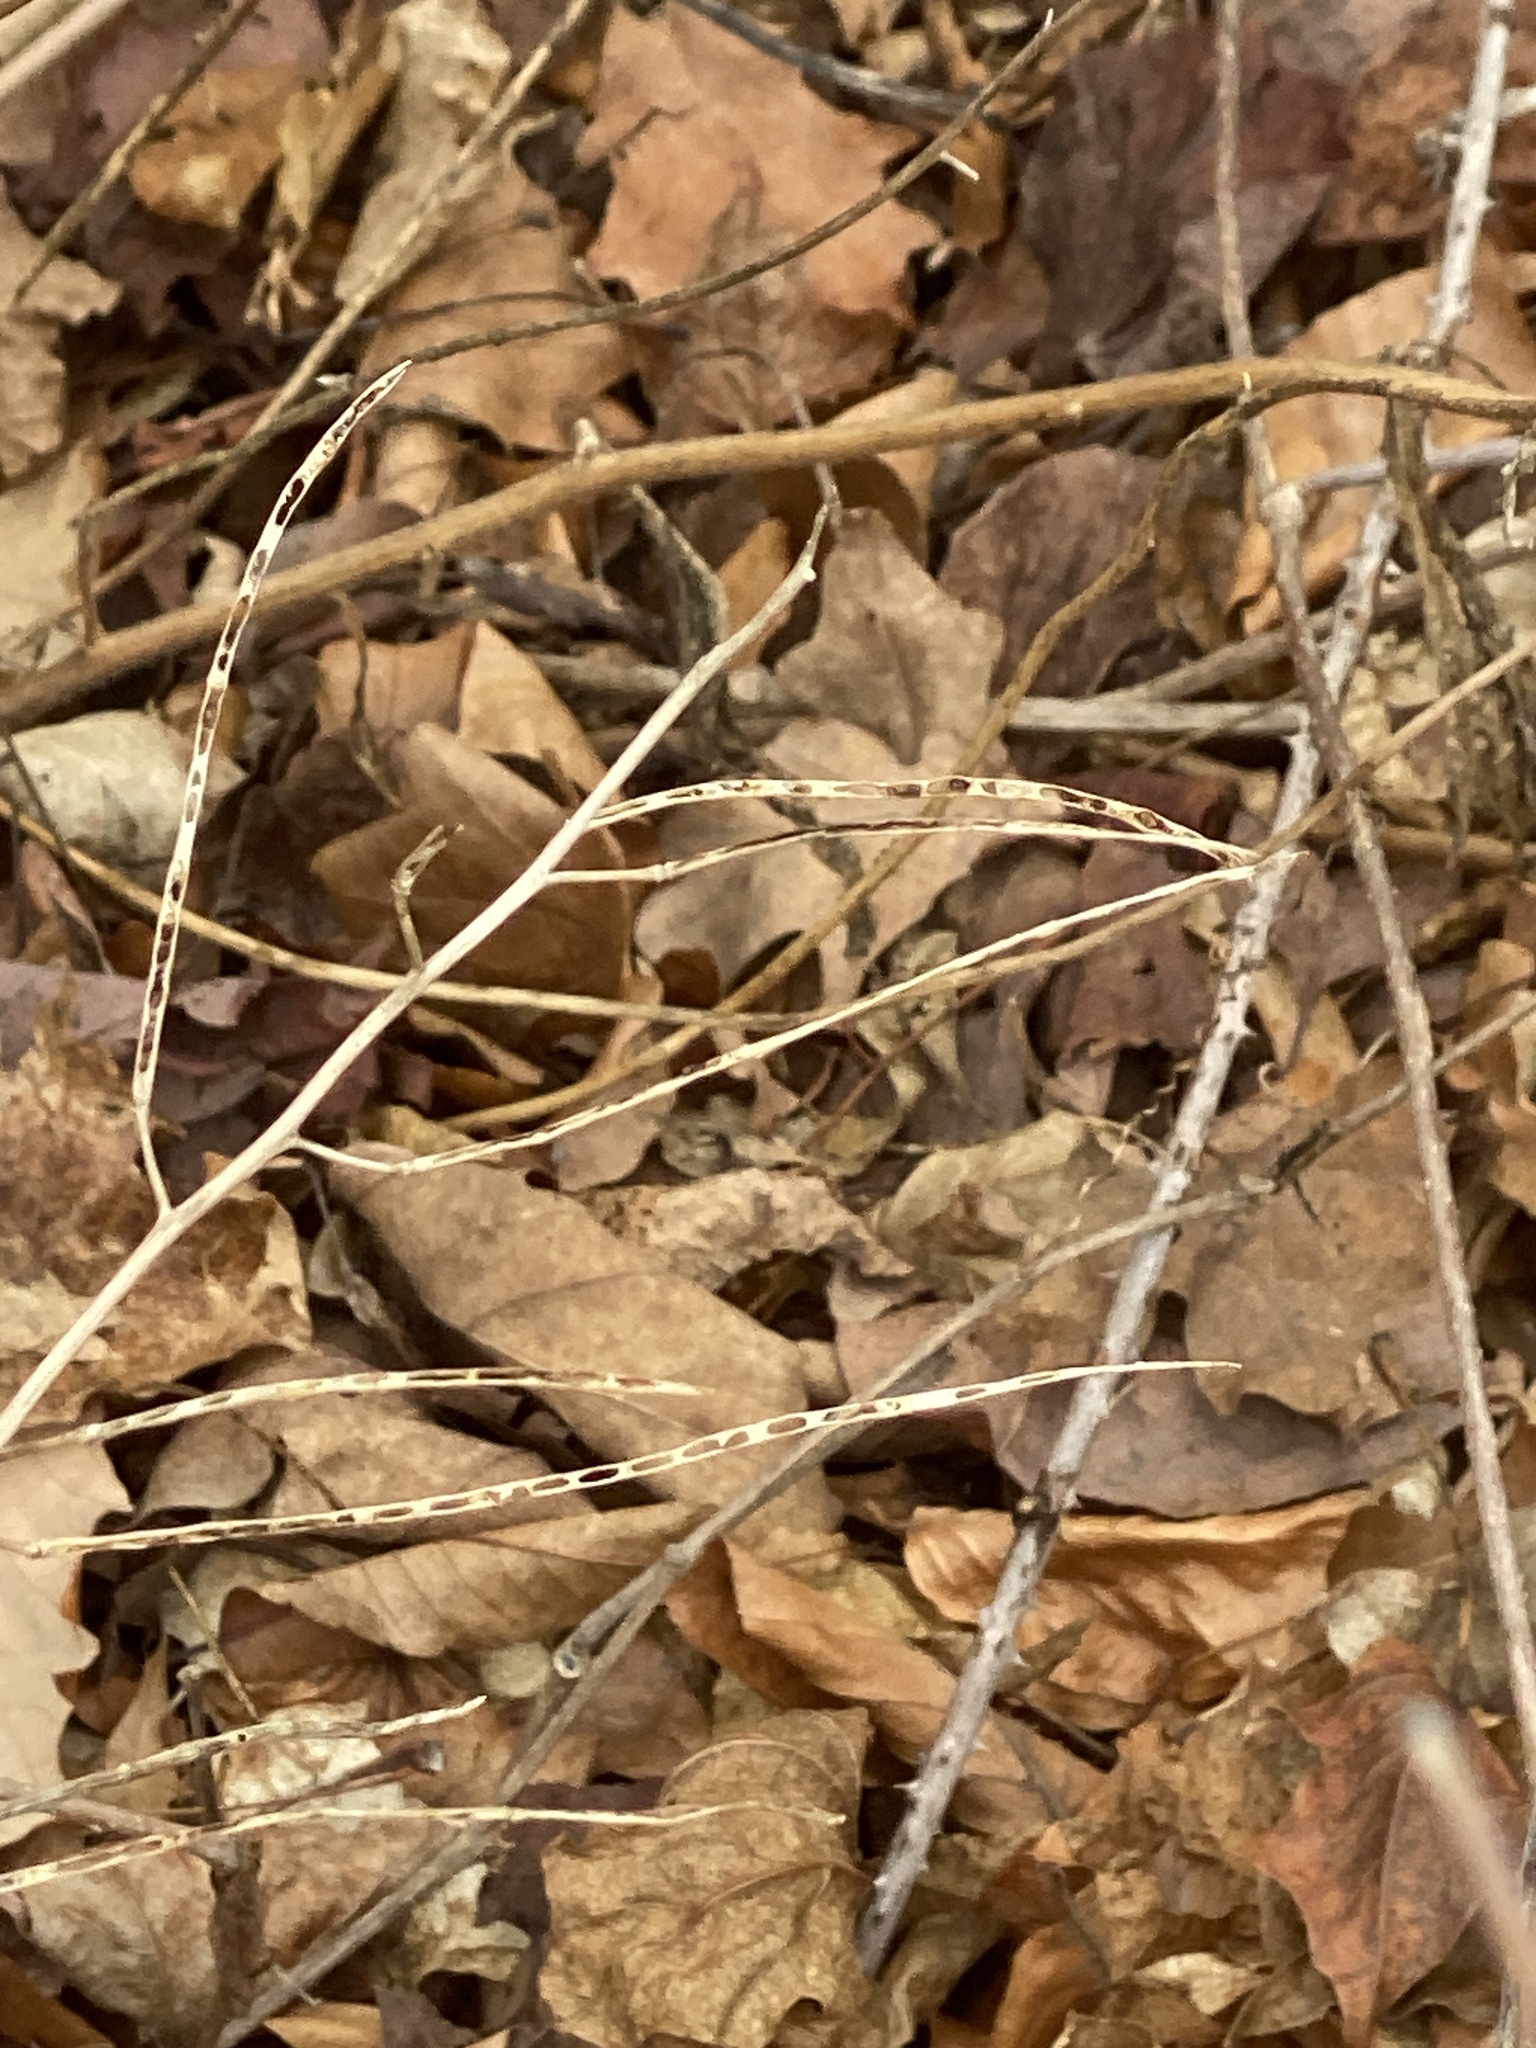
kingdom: Plantae
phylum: Tracheophyta
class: Magnoliopsida
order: Brassicales
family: Brassicaceae
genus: Alliaria
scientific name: Alliaria petiolata
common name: Garlic mustard
